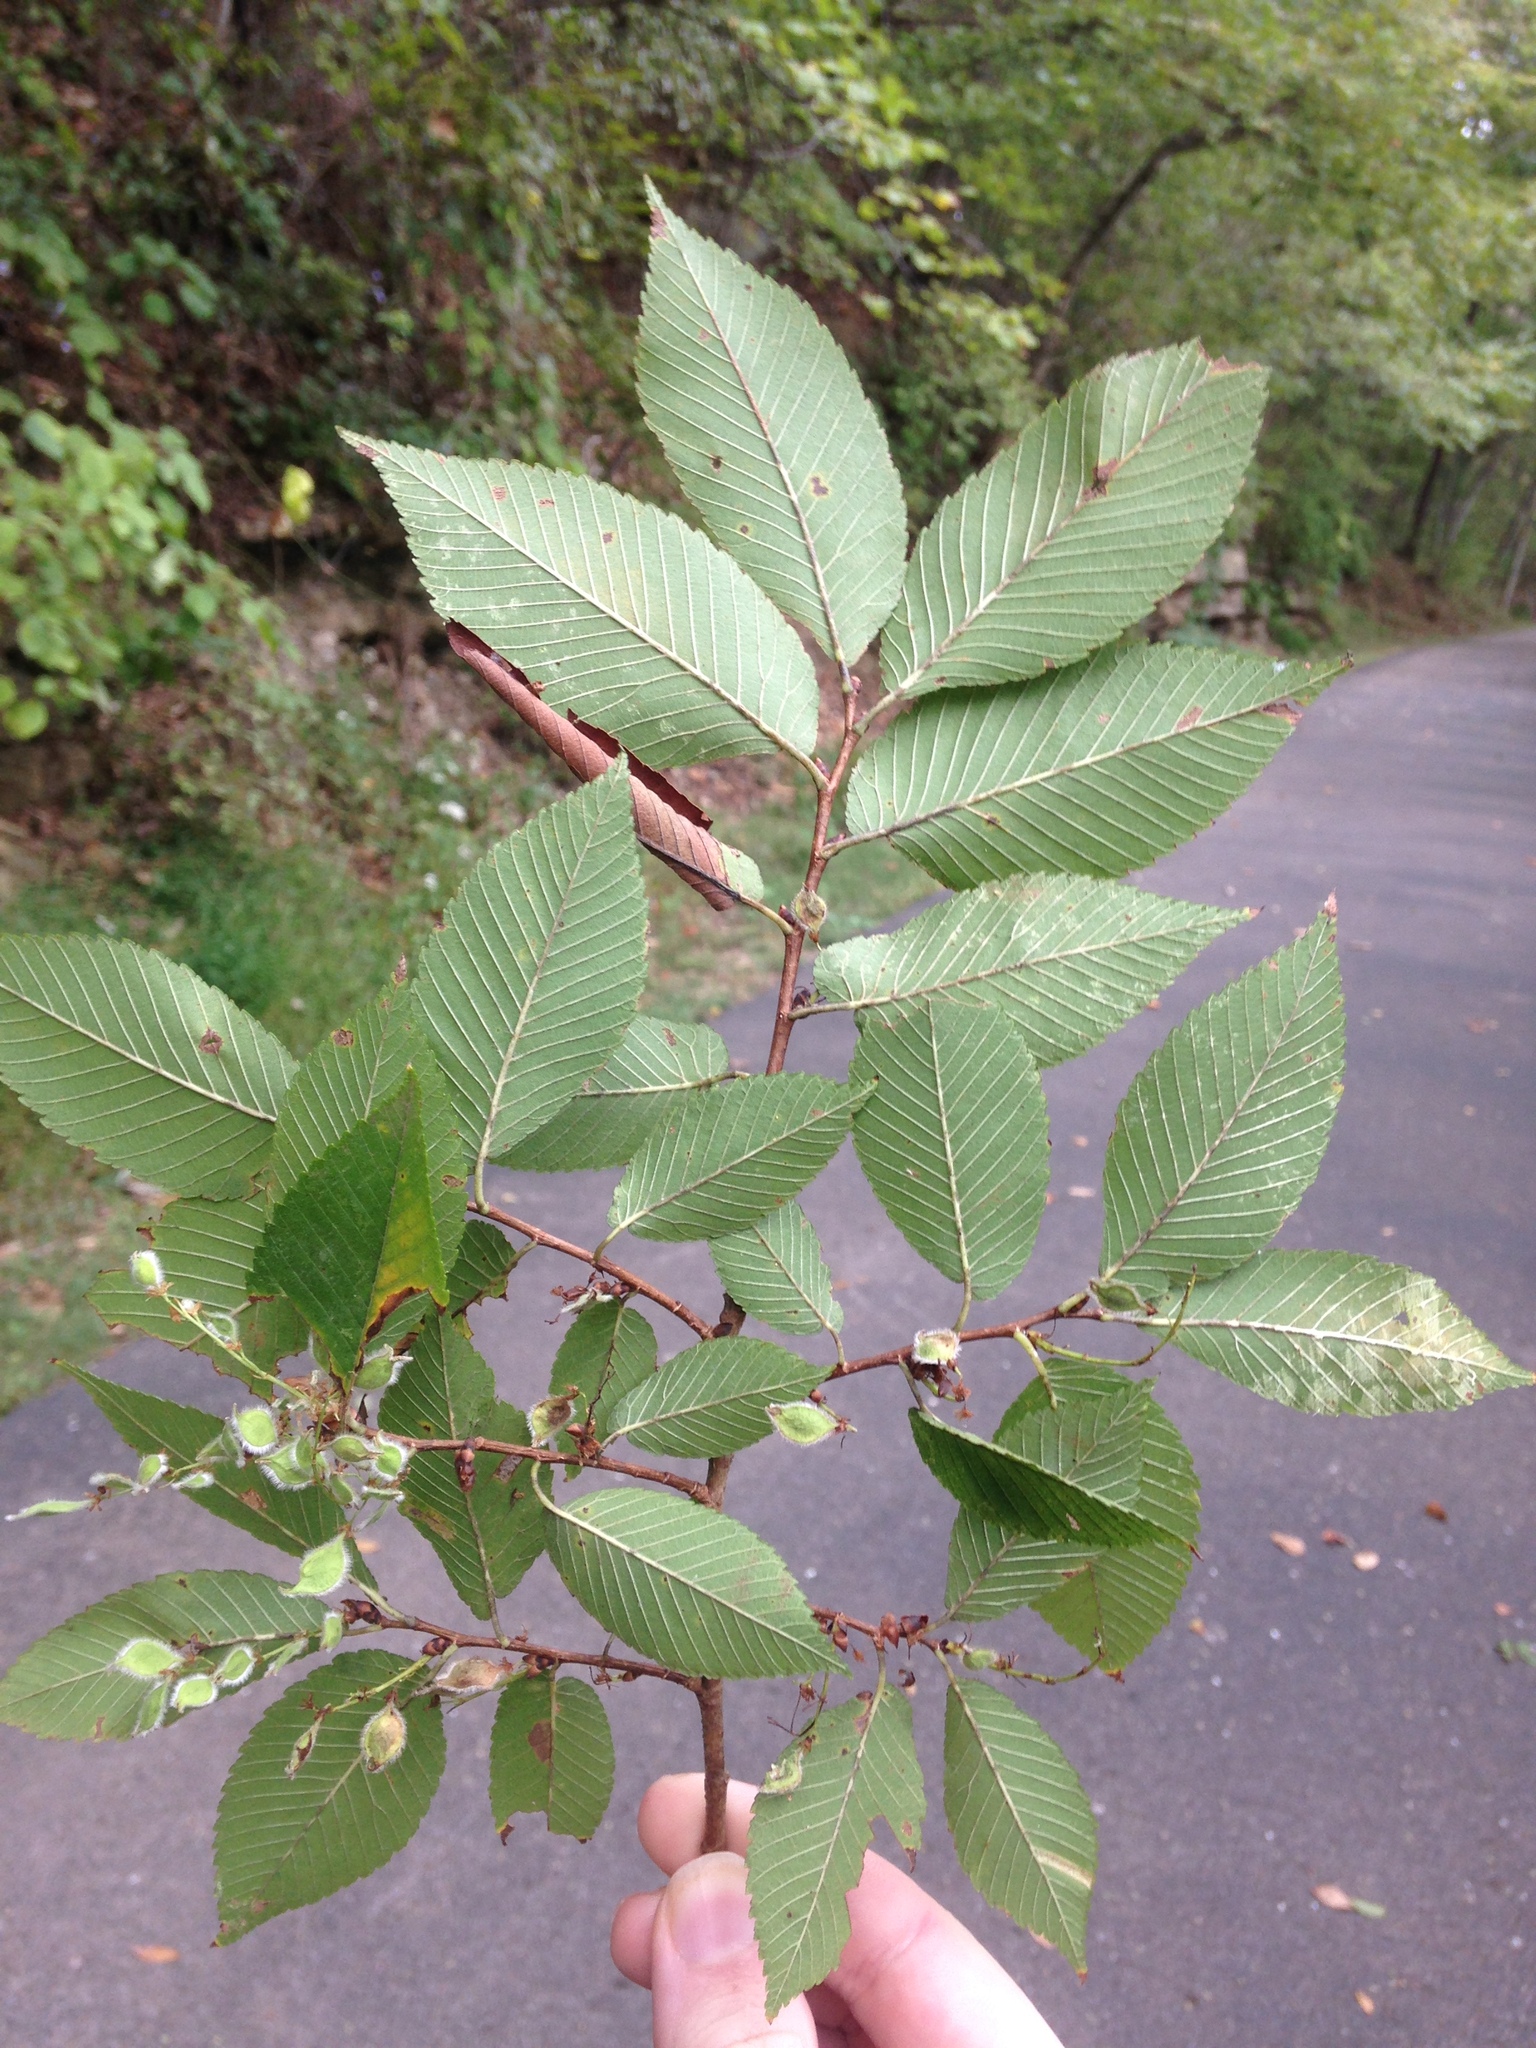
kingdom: Plantae
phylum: Tracheophyta
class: Magnoliopsida
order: Rosales
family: Ulmaceae
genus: Ulmus
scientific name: Ulmus serotina
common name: September elm
